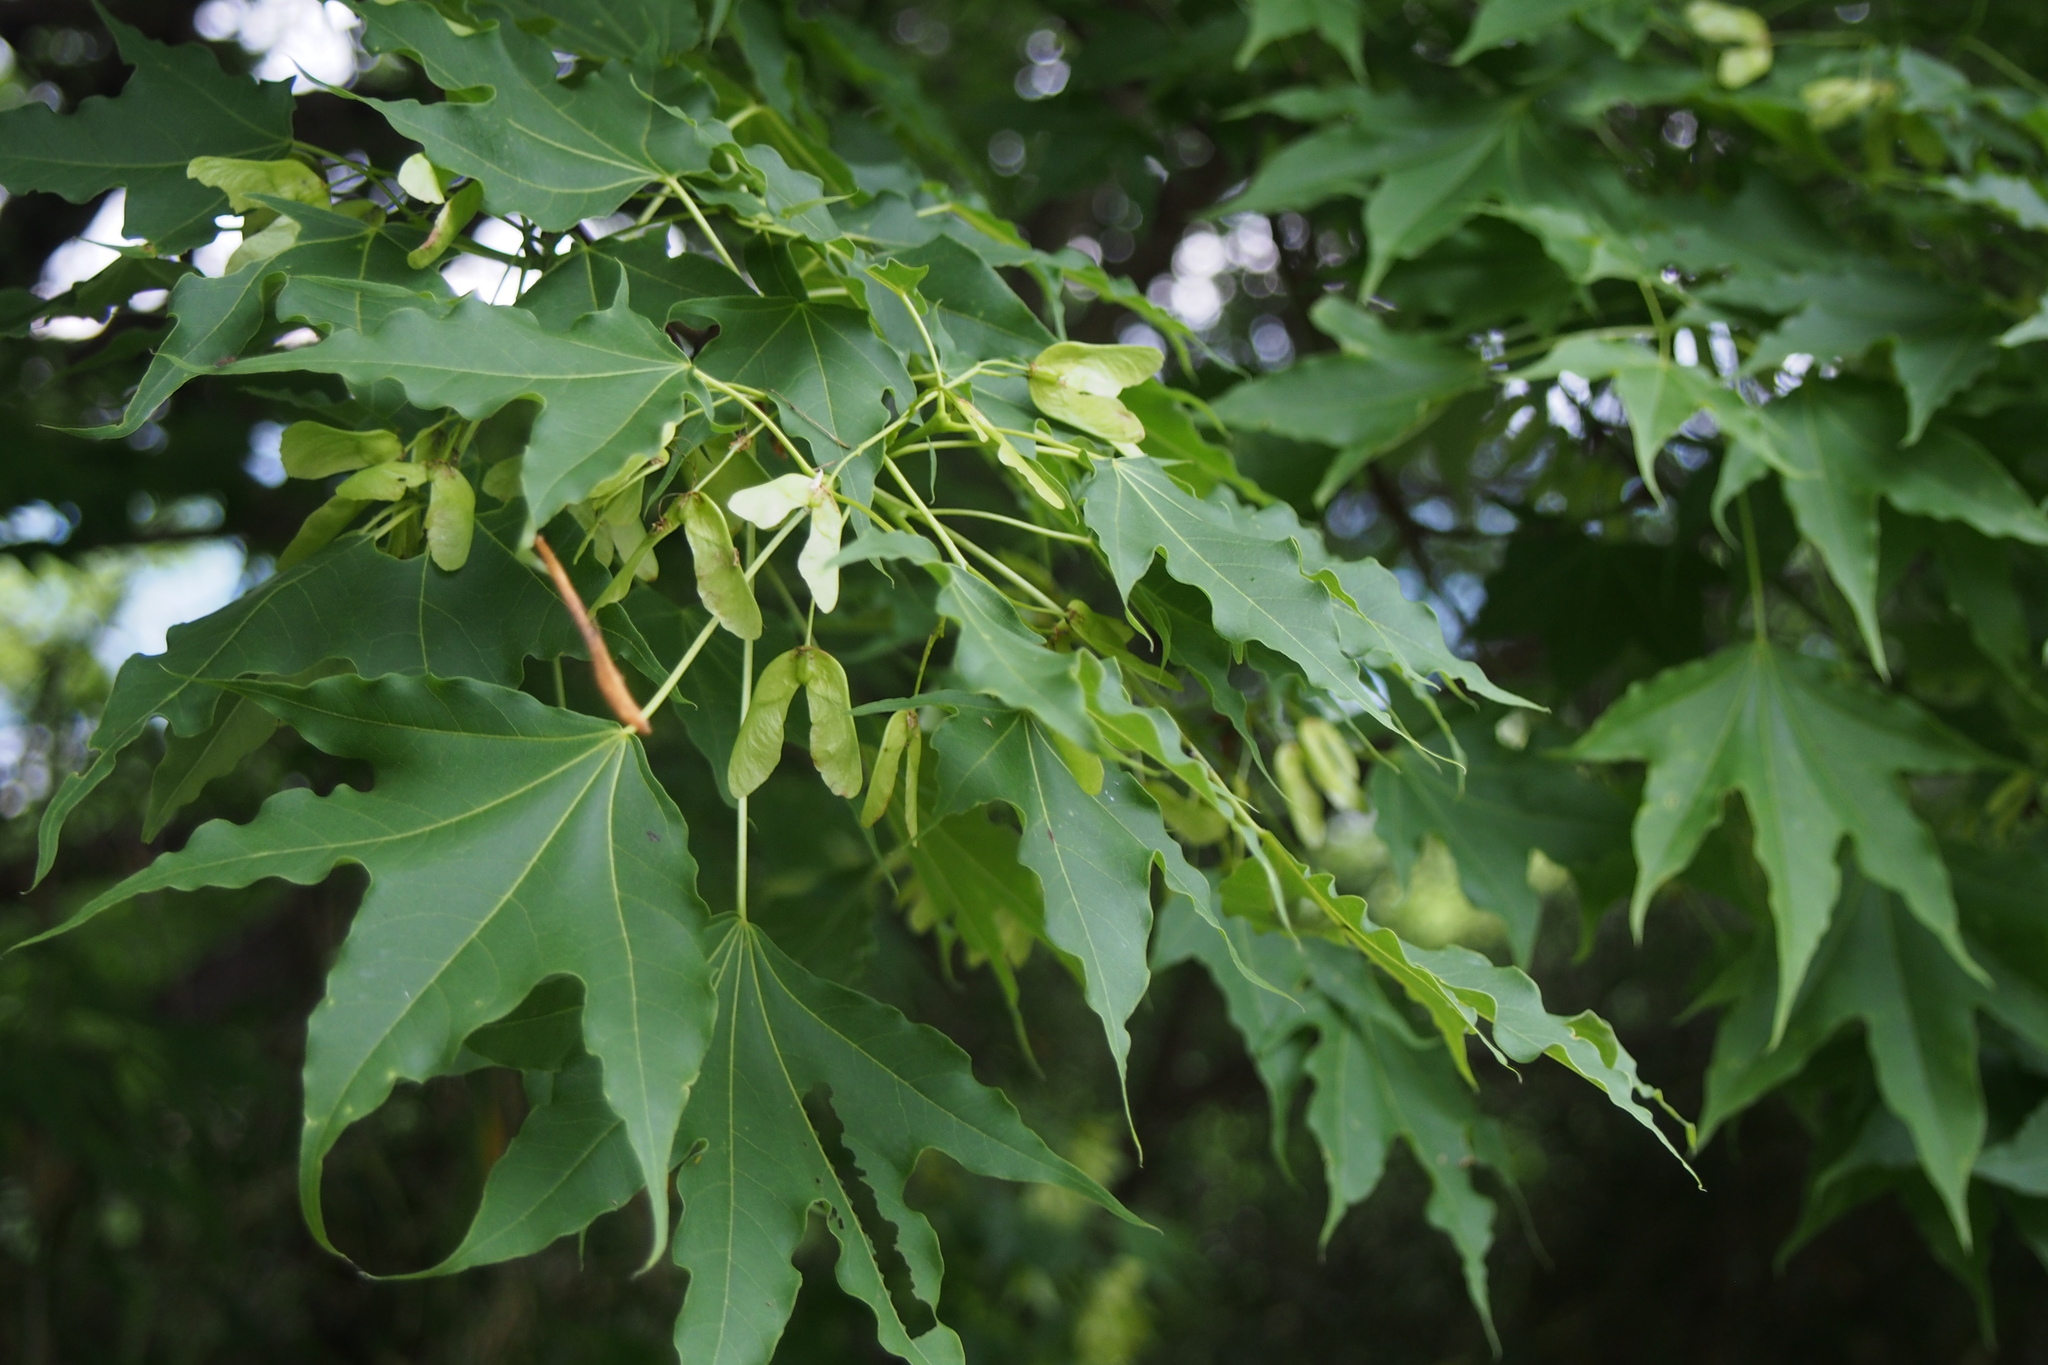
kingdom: Plantae
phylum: Tracheophyta
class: Magnoliopsida
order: Sapindales
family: Sapindaceae
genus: Acer
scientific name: Acer pictum
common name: The painted maple
